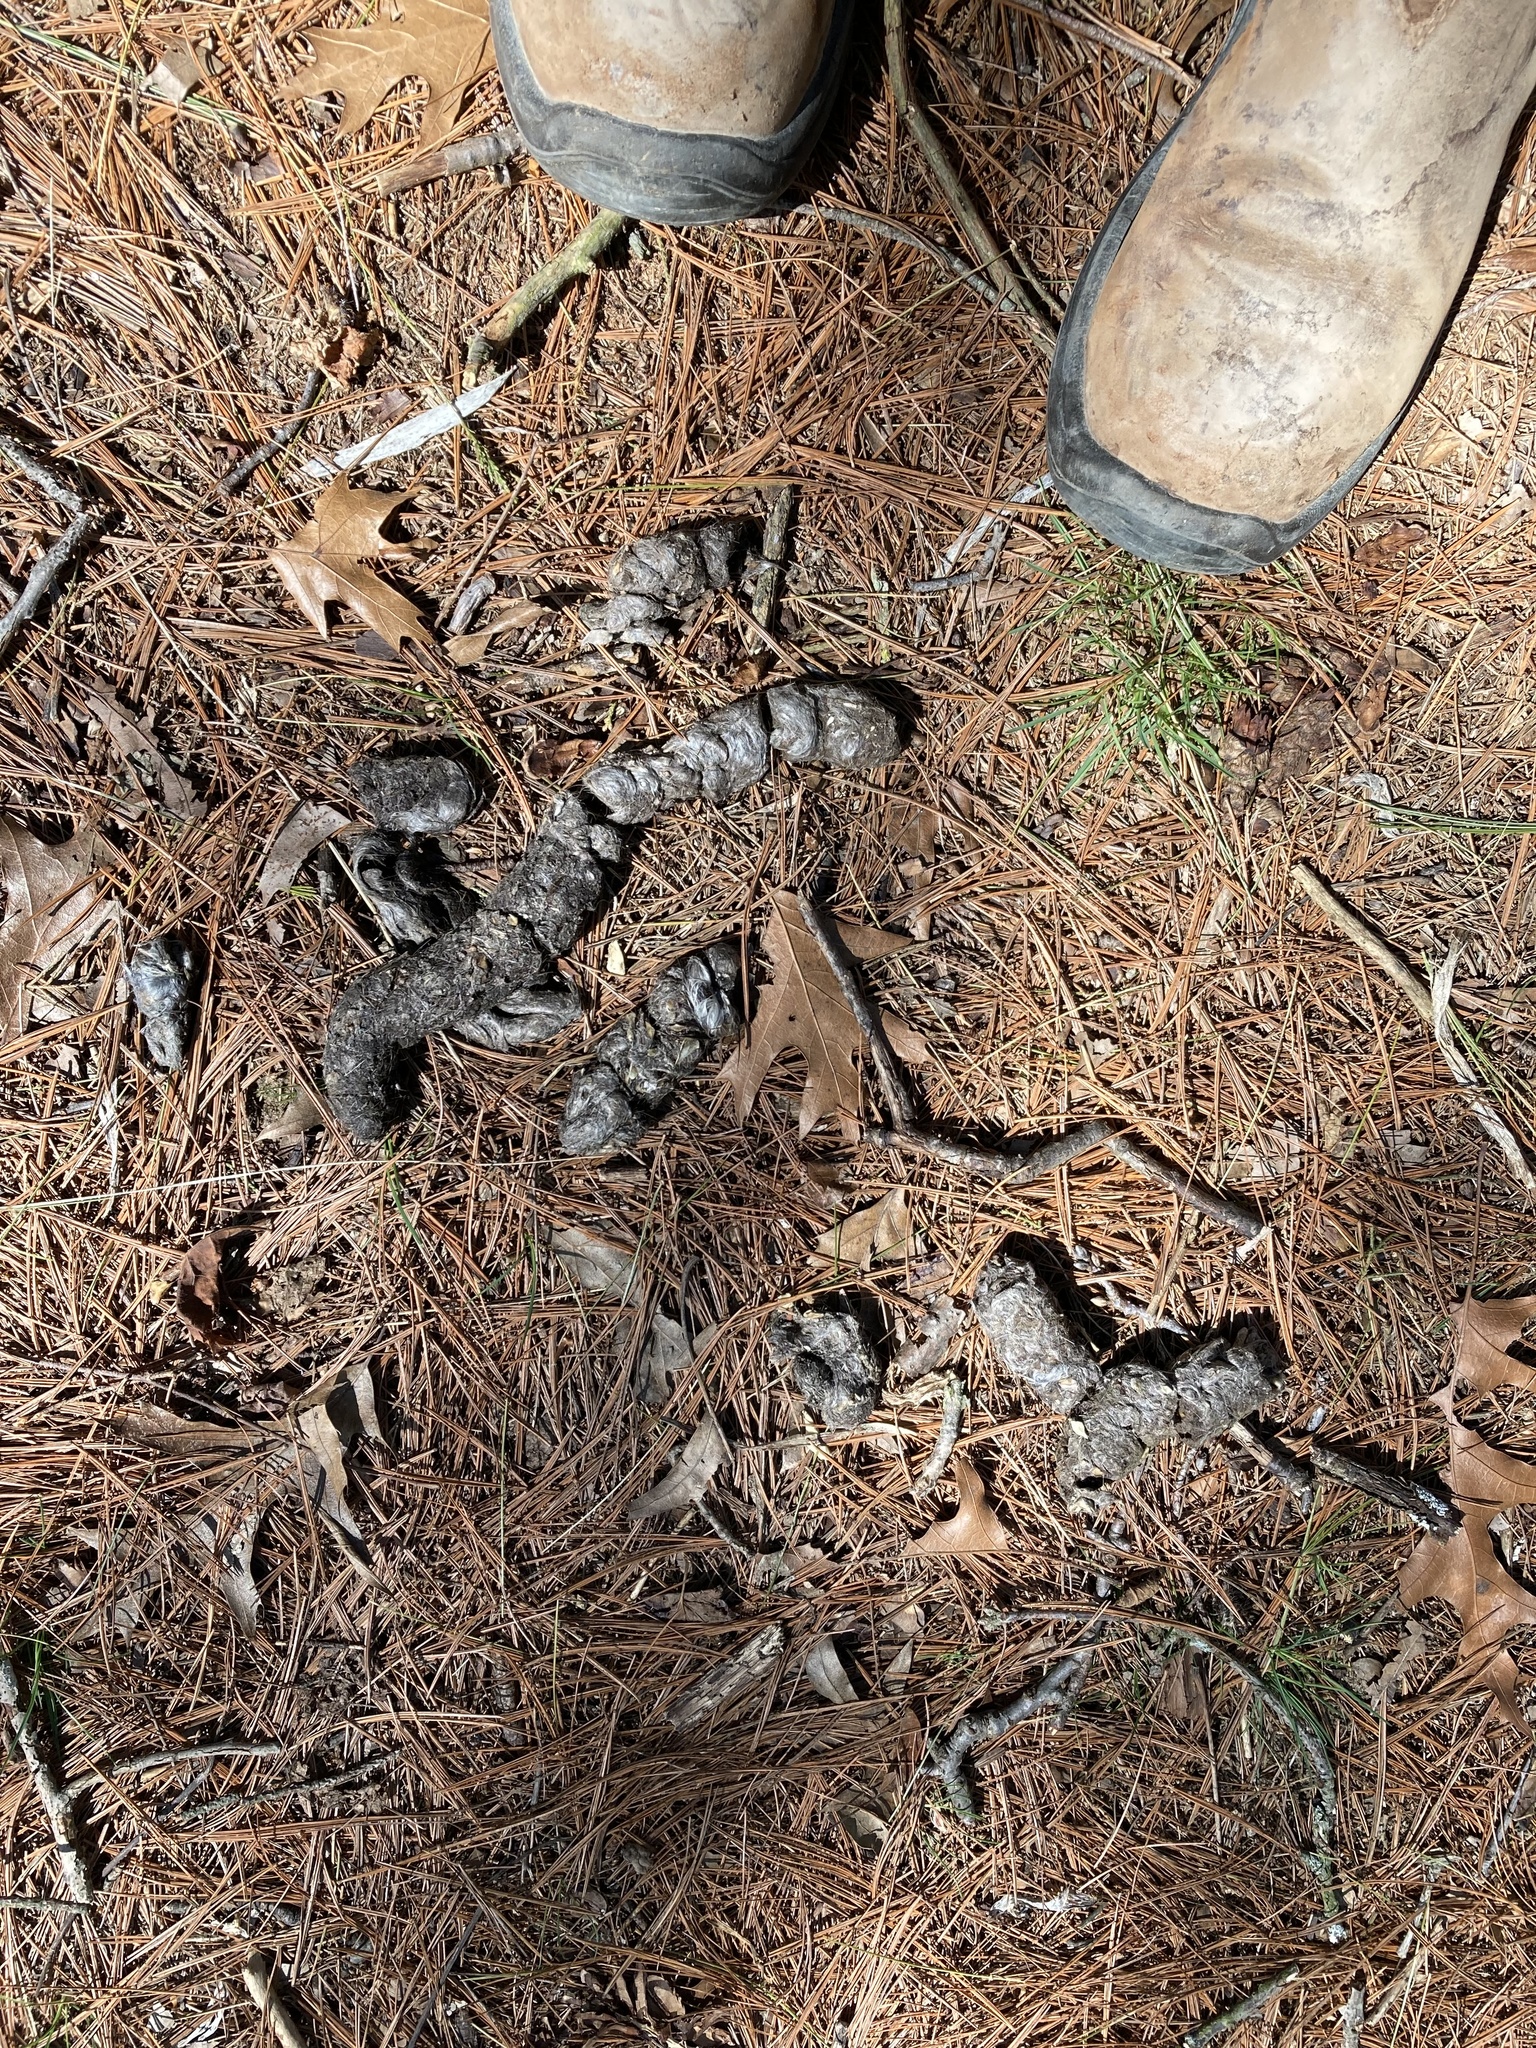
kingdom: Animalia
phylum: Chordata
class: Mammalia
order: Carnivora
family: Canidae
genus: Canis
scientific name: Canis latrans
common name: Coyote
